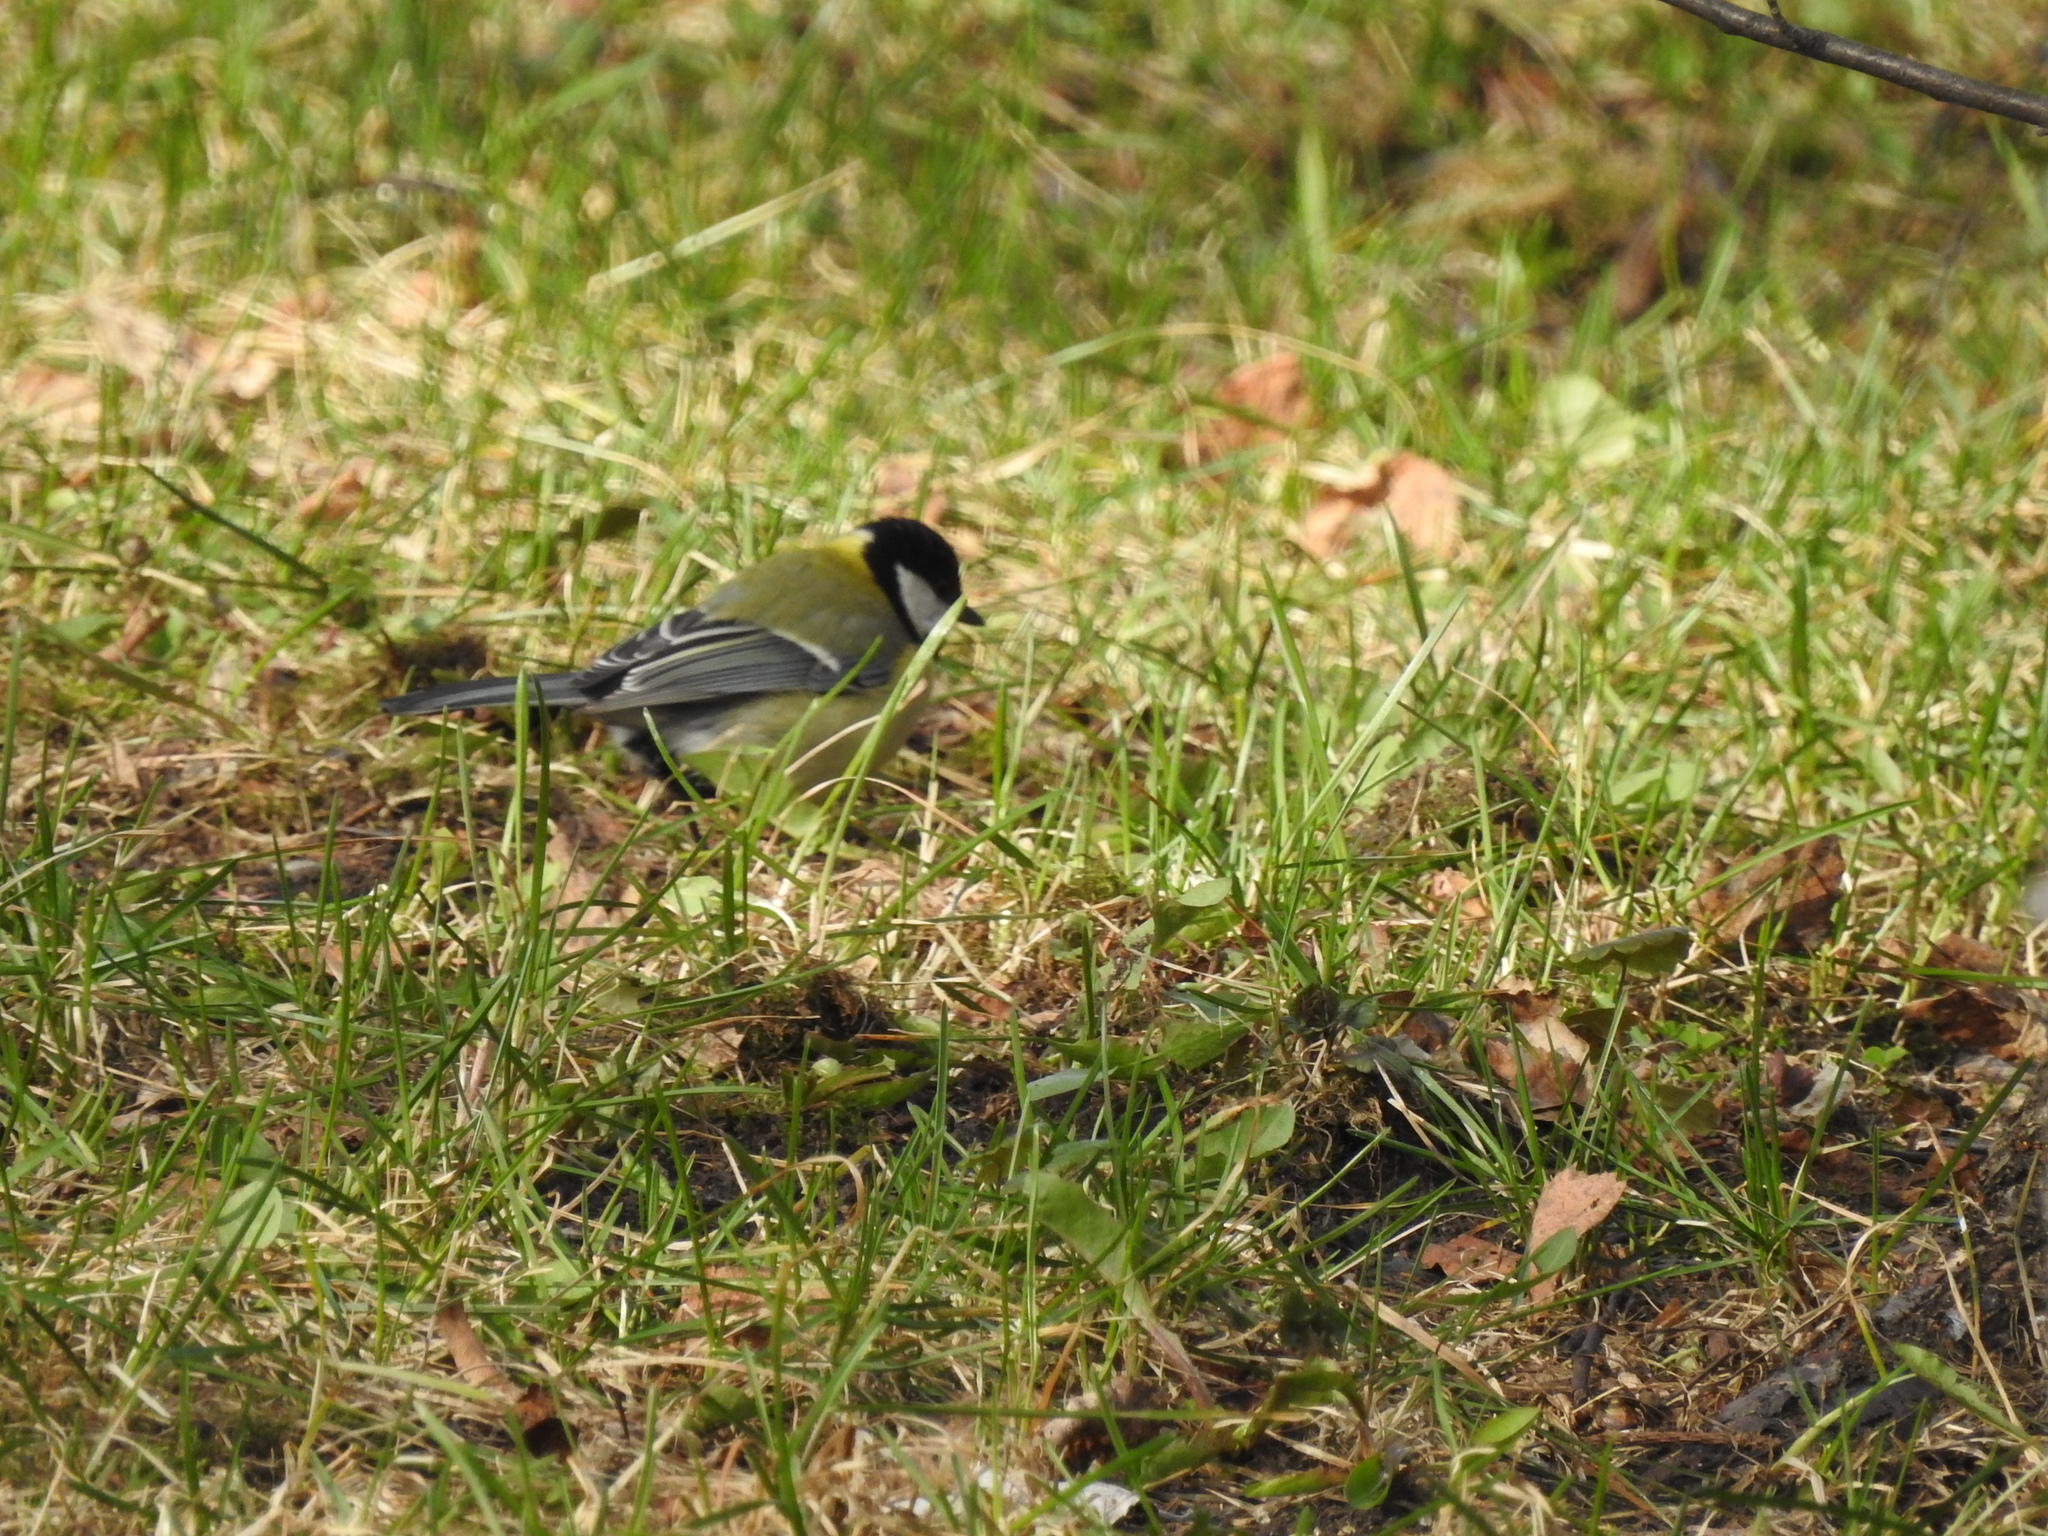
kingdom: Animalia
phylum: Chordata
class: Aves
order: Passeriformes
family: Paridae
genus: Parus
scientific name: Parus major
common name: Great tit
